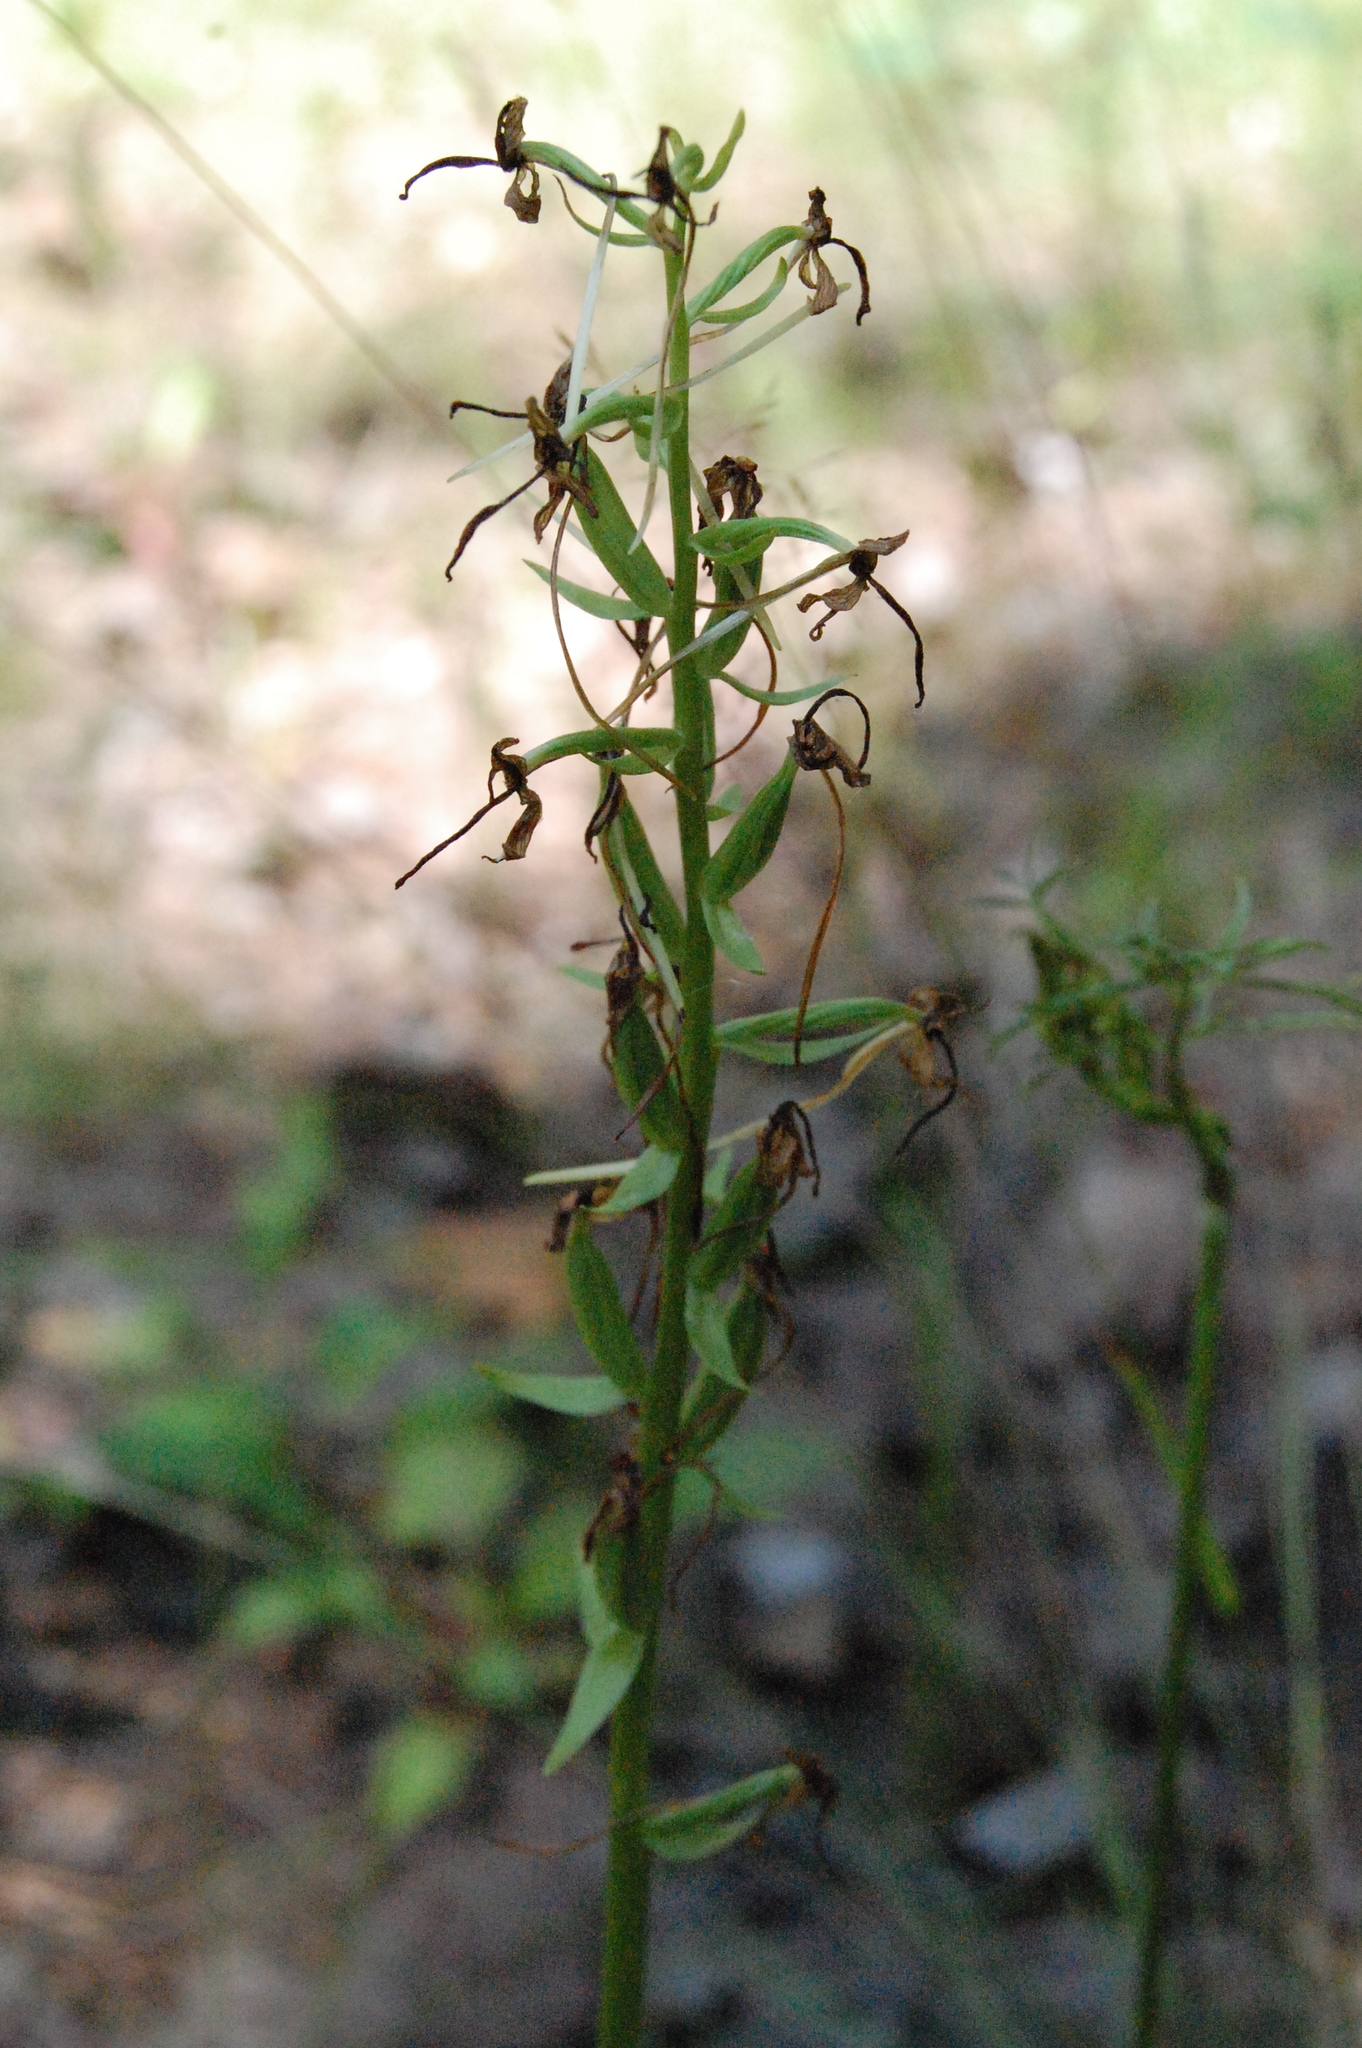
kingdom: Plantae
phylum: Tracheophyta
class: Liliopsida
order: Asparagales
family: Orchidaceae
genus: Platanthera
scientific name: Platanthera bifolia
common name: Lesser butterfly-orchid
